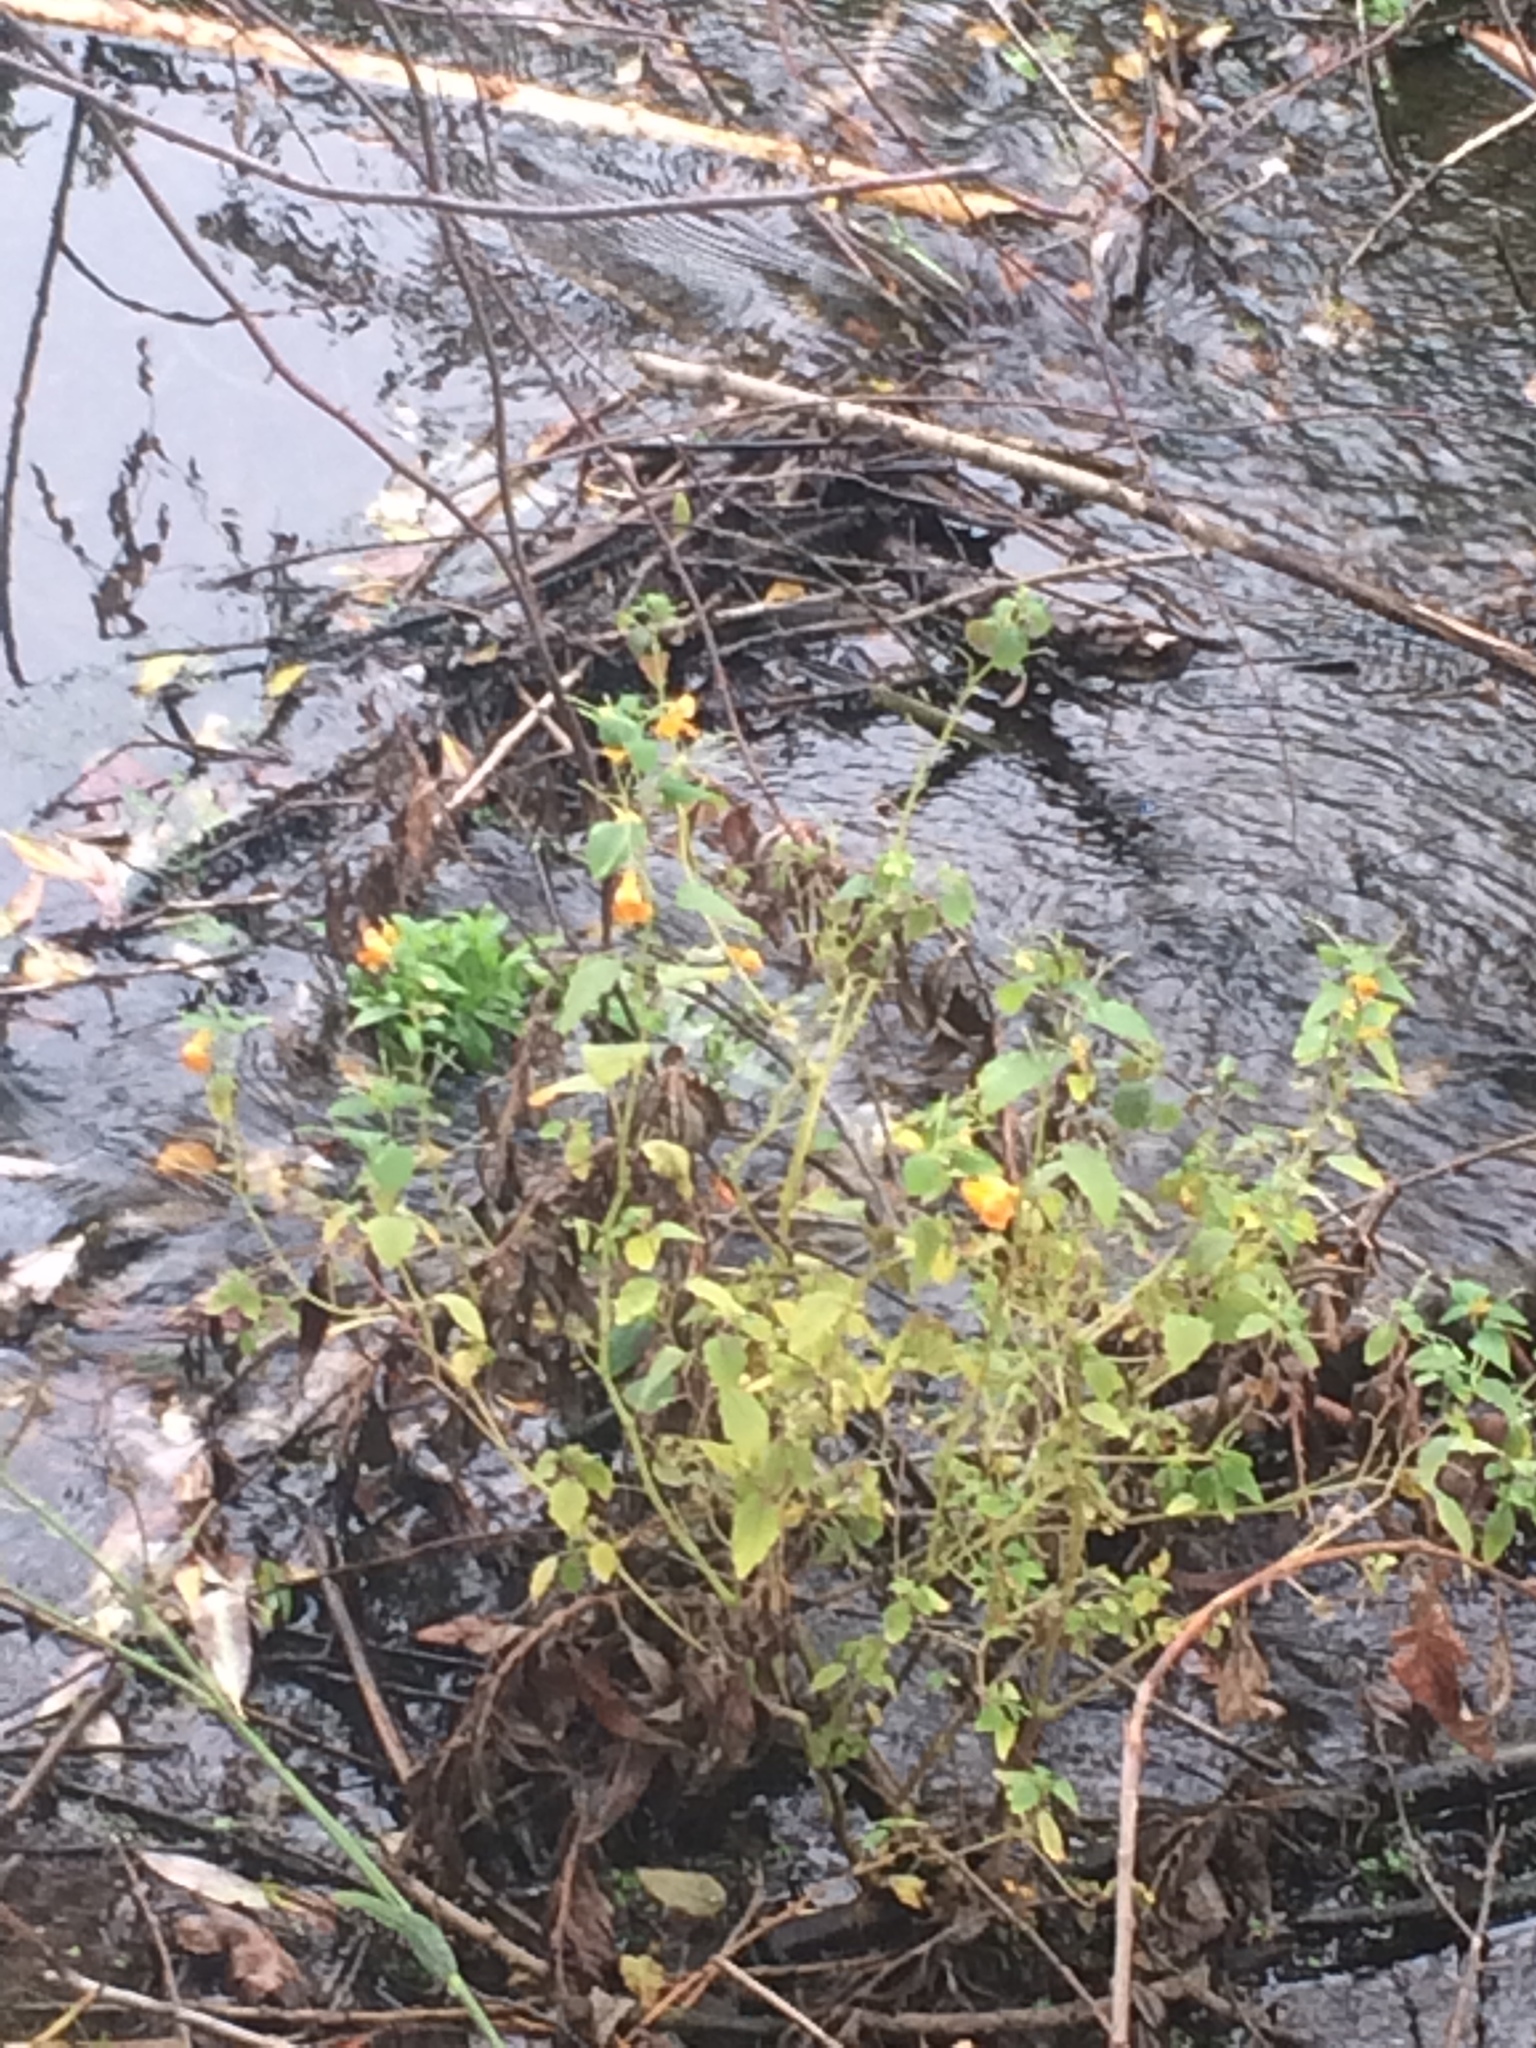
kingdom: Plantae
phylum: Tracheophyta
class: Magnoliopsida
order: Ericales
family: Balsaminaceae
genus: Impatiens
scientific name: Impatiens capensis
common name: Orange balsam
